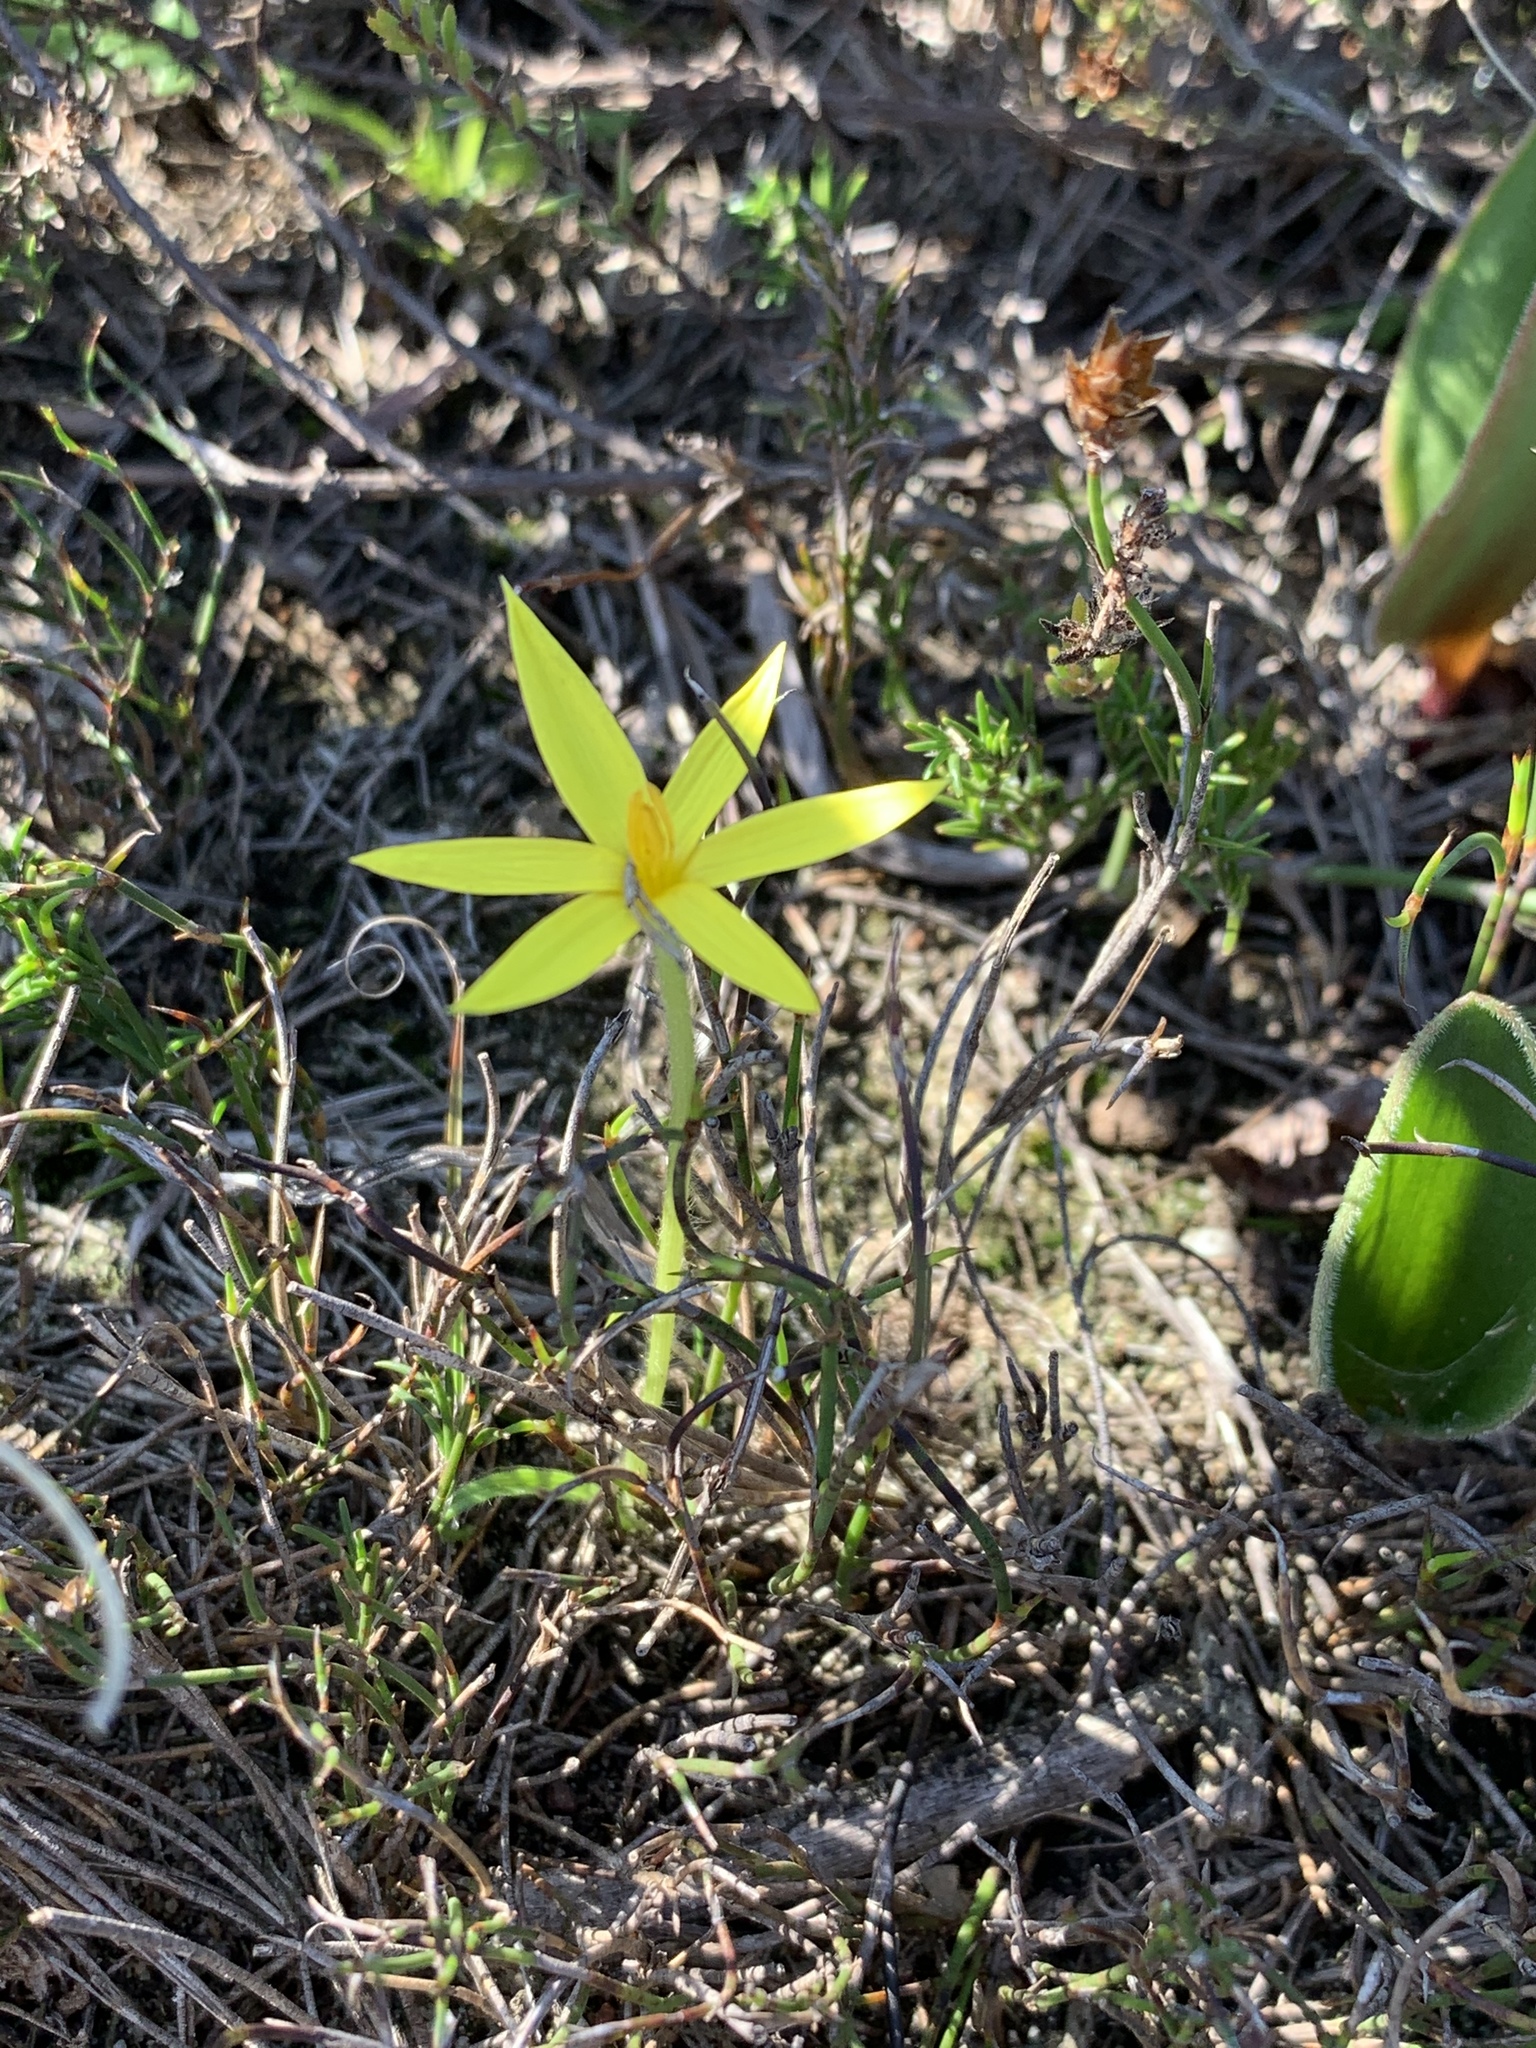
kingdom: Plantae
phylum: Tracheophyta
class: Liliopsida
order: Asparagales
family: Hypoxidaceae
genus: Empodium
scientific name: Empodium plicatum
